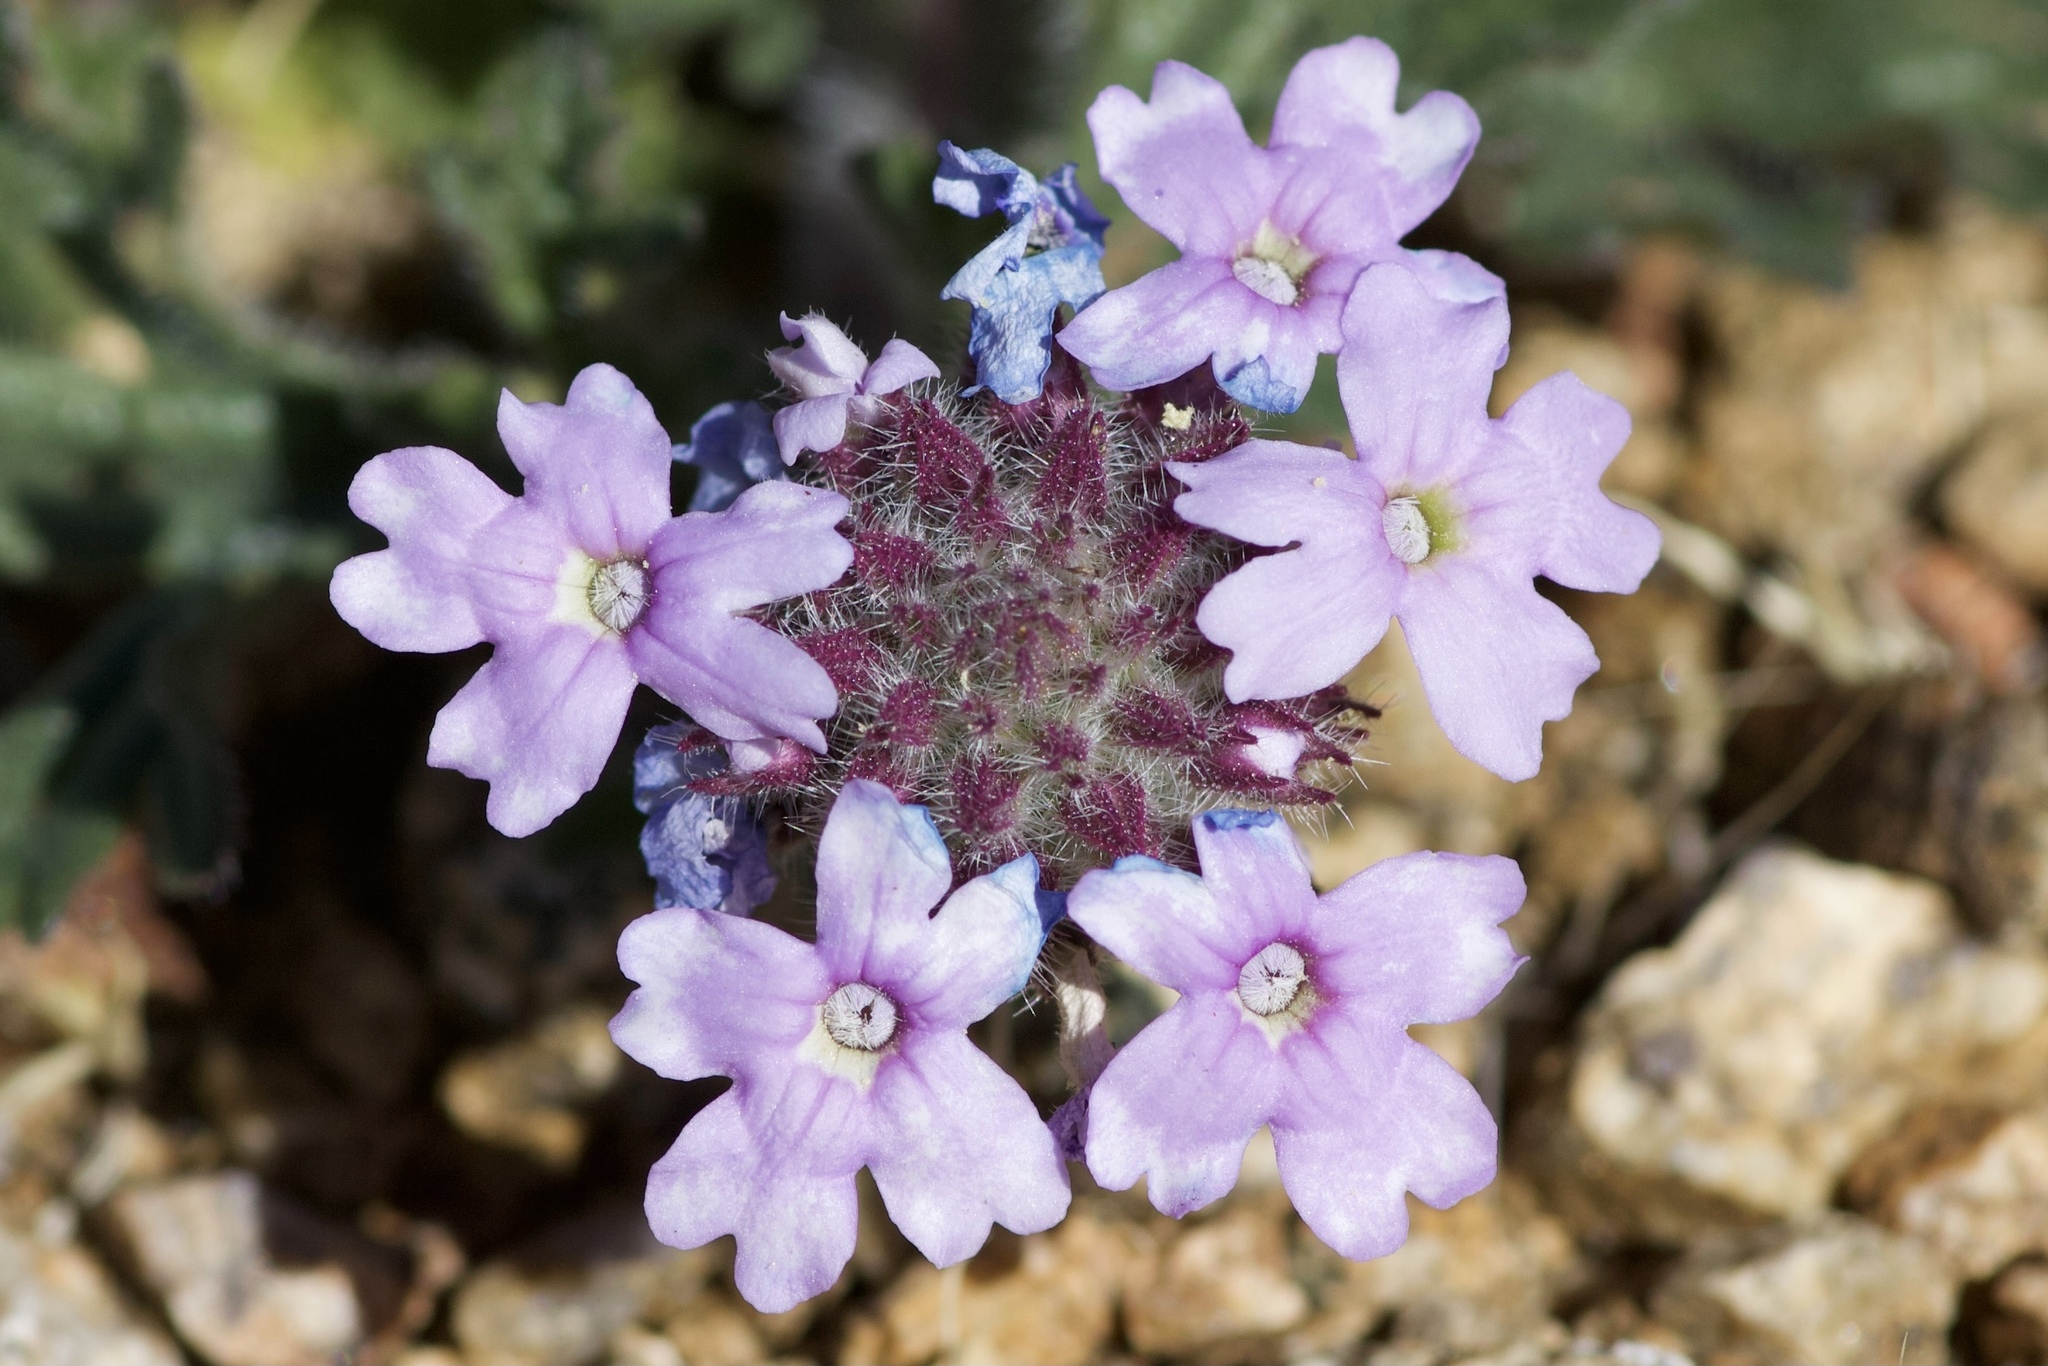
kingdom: Plantae
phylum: Tracheophyta
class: Magnoliopsida
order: Lamiales
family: Verbenaceae
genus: Verbena
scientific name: Verbena gooddingii
